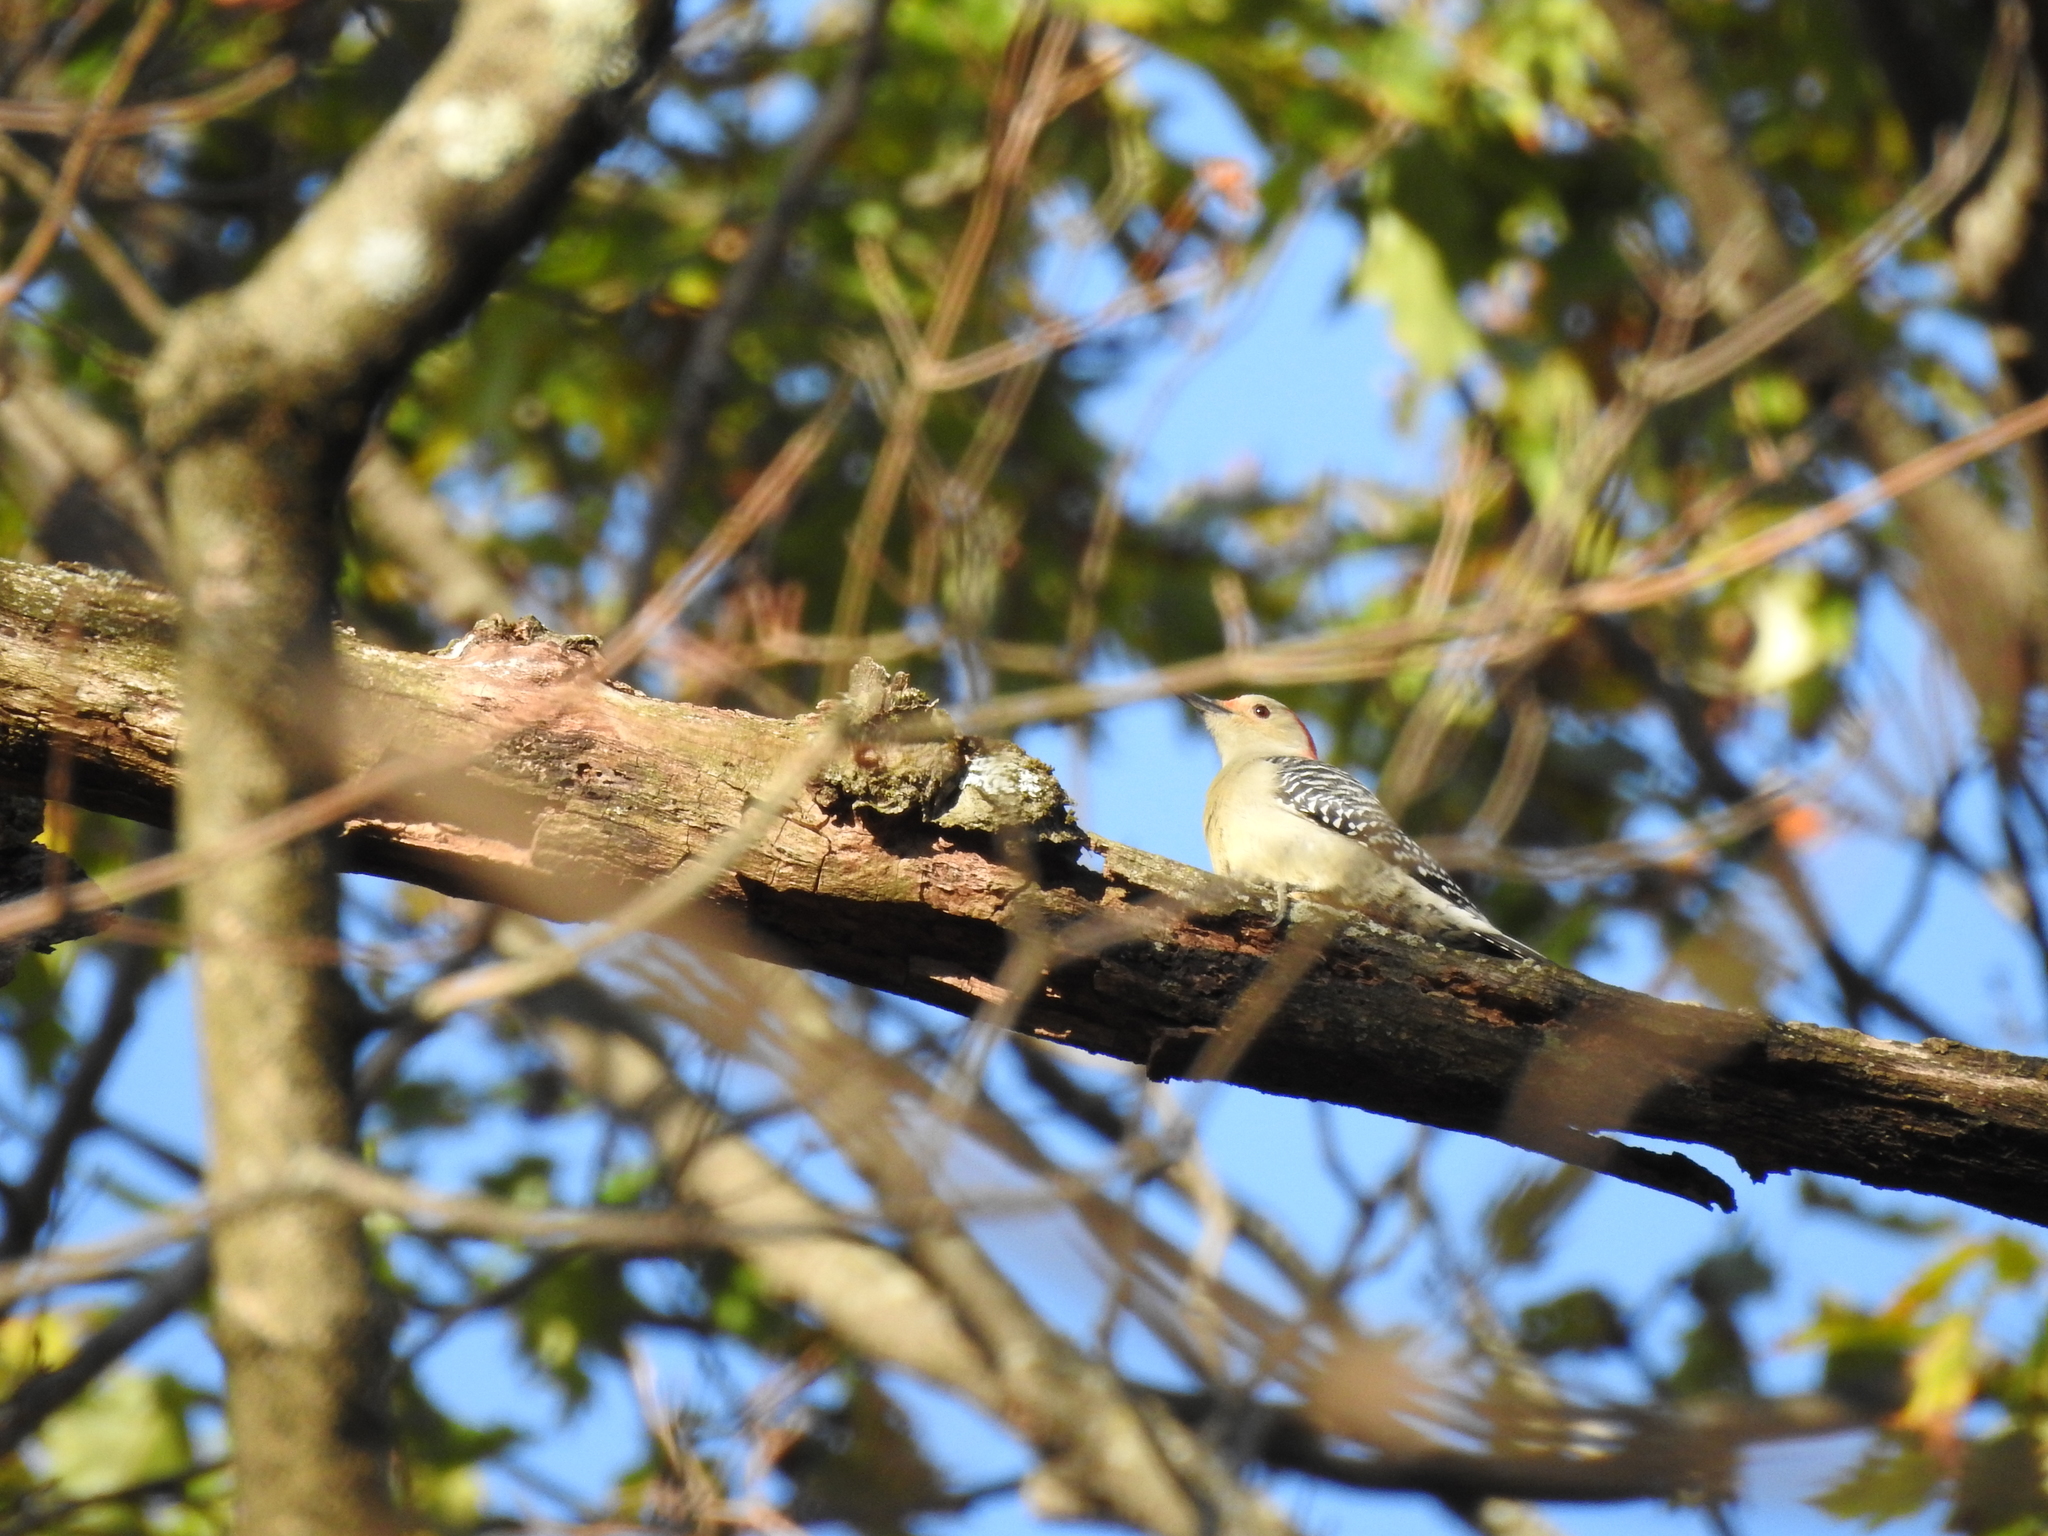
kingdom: Animalia
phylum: Chordata
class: Aves
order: Piciformes
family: Picidae
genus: Melanerpes
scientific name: Melanerpes carolinus
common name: Red-bellied woodpecker
